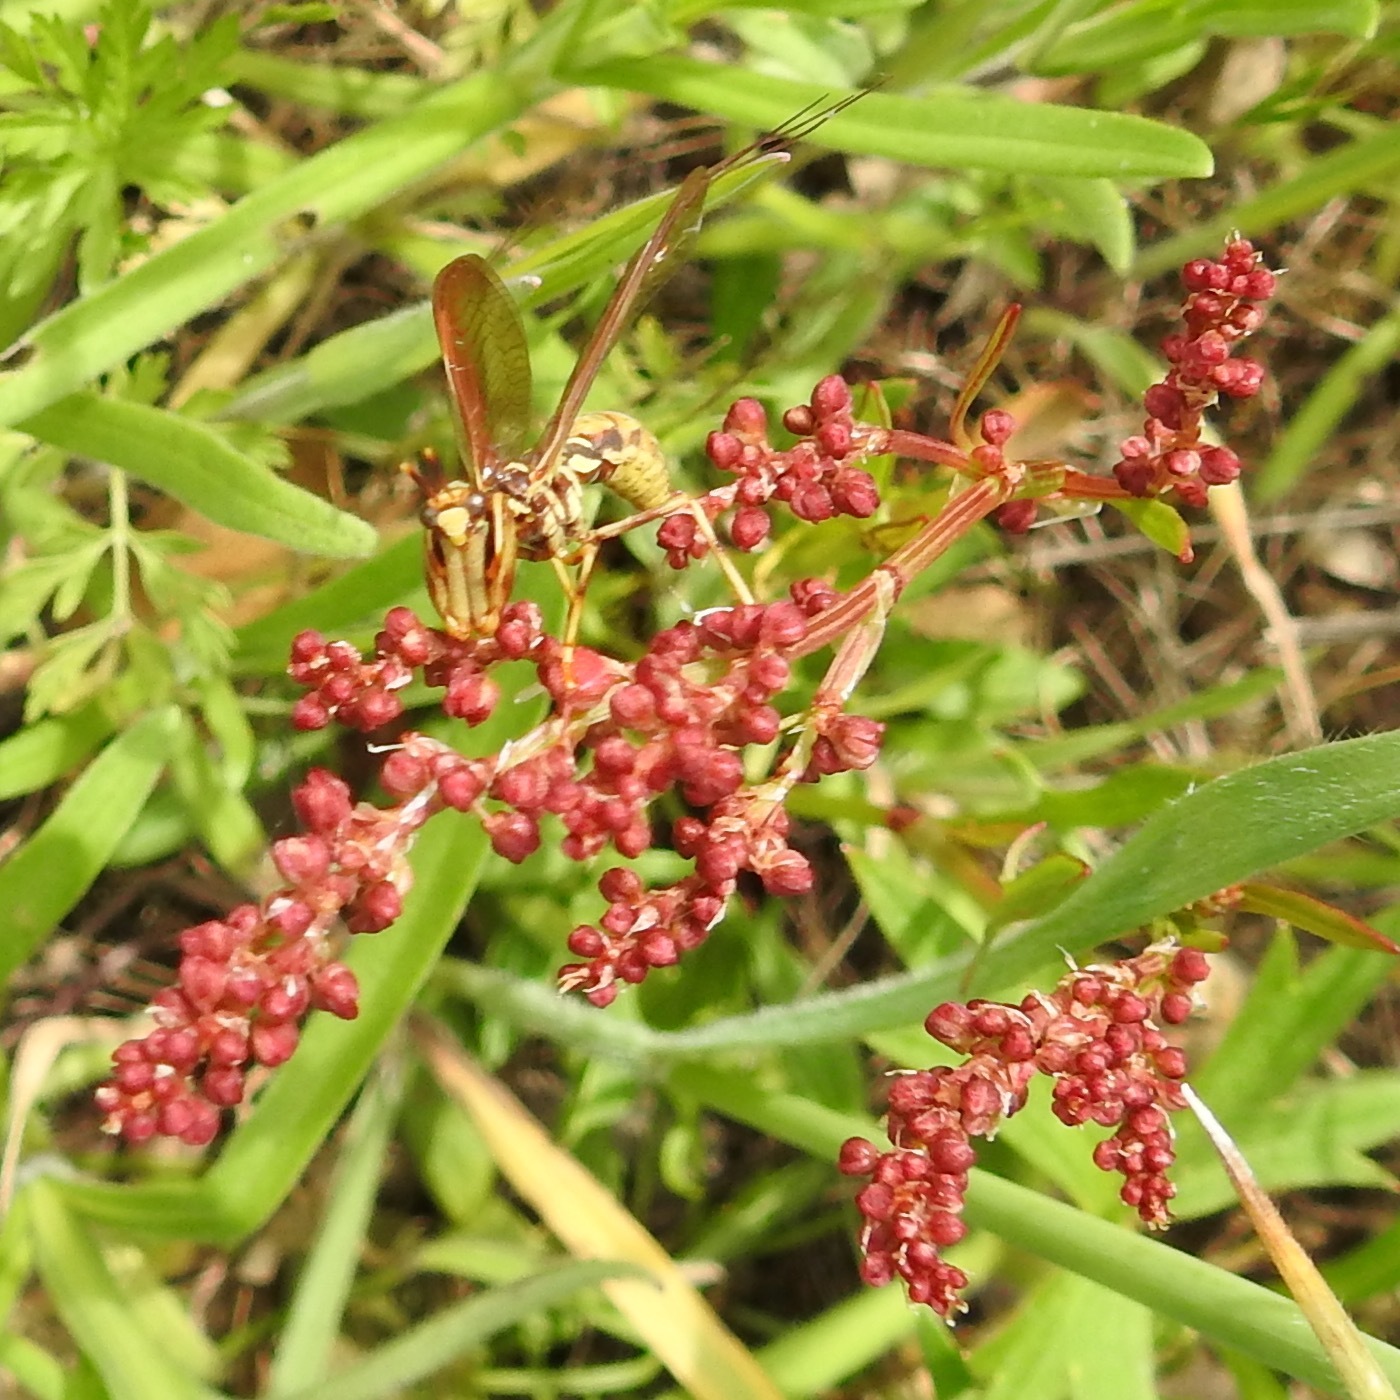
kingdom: Animalia
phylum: Arthropoda
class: Insecta
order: Neuroptera
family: Mantispidae
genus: Climaciella
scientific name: Climaciella brunnea
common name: Brown wasp mantidfly
